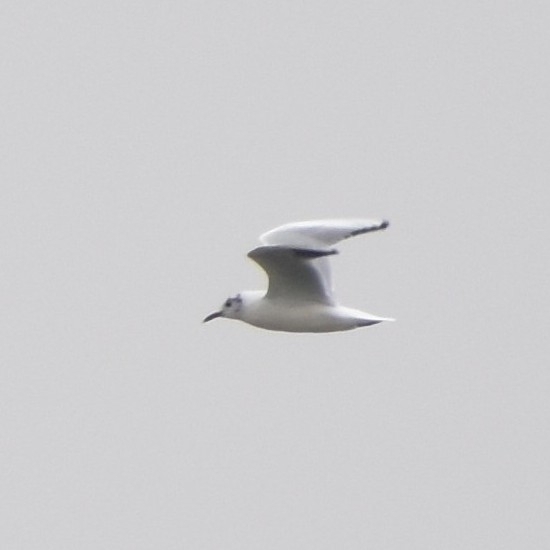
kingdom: Animalia
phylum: Chordata
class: Aves
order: Charadriiformes
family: Laridae
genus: Chroicocephalus
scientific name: Chroicocephalus ridibundus
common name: Black-headed gull
